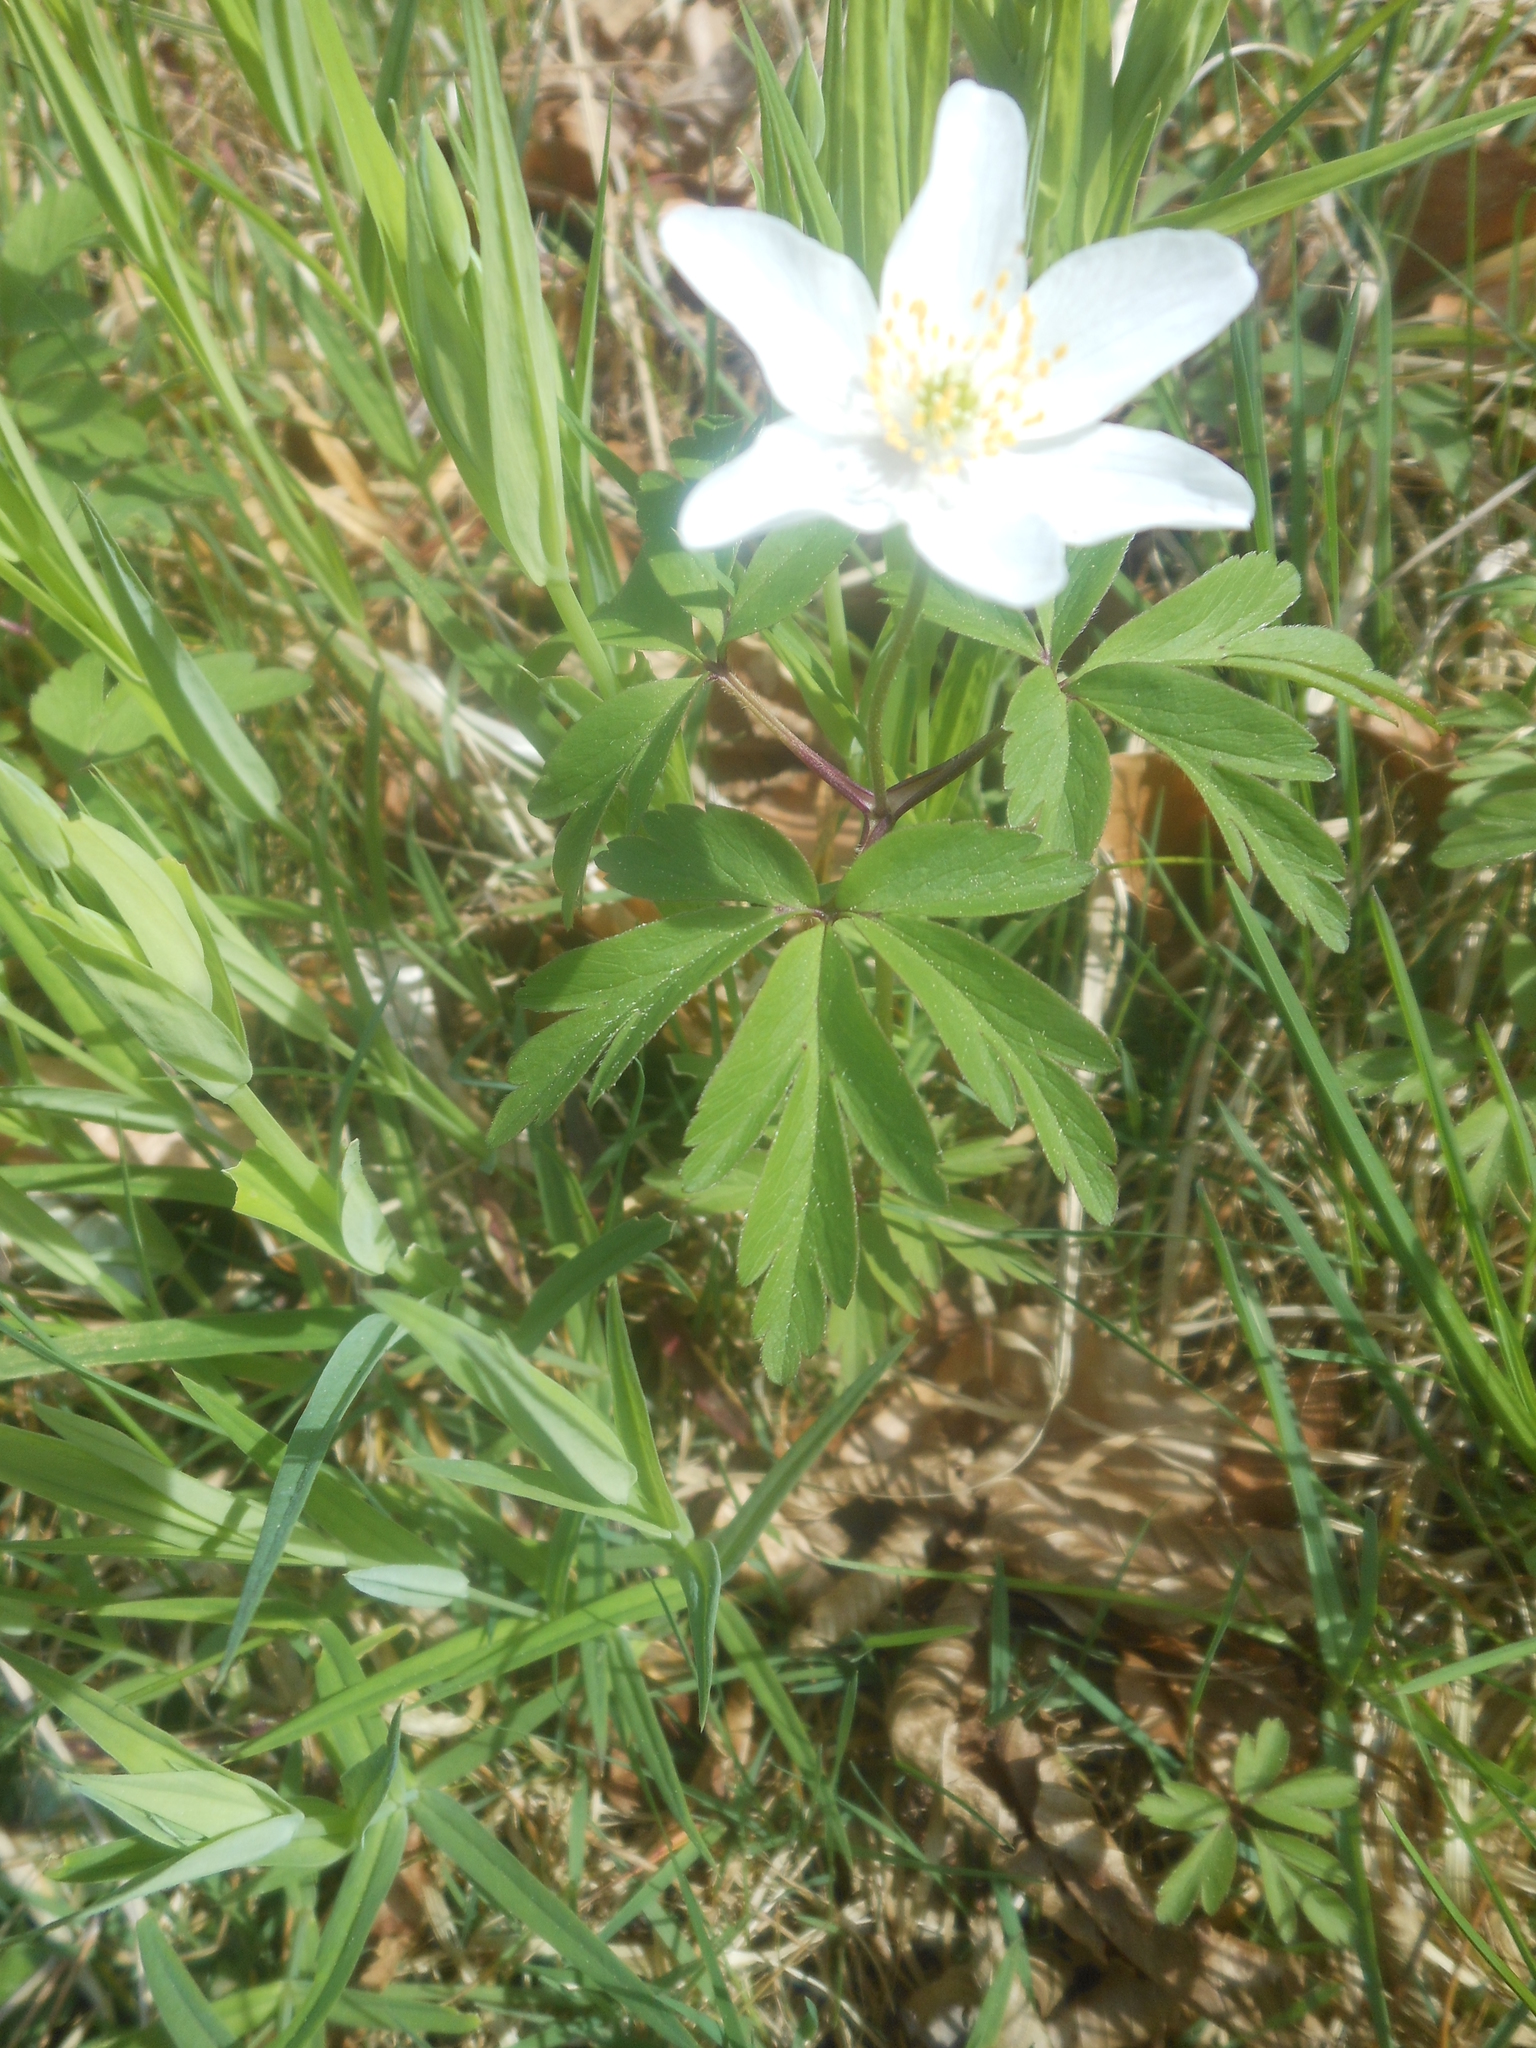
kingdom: Plantae
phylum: Tracheophyta
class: Magnoliopsida
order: Ranunculales
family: Ranunculaceae
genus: Anemone
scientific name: Anemone nemorosa
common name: Wood anemone
